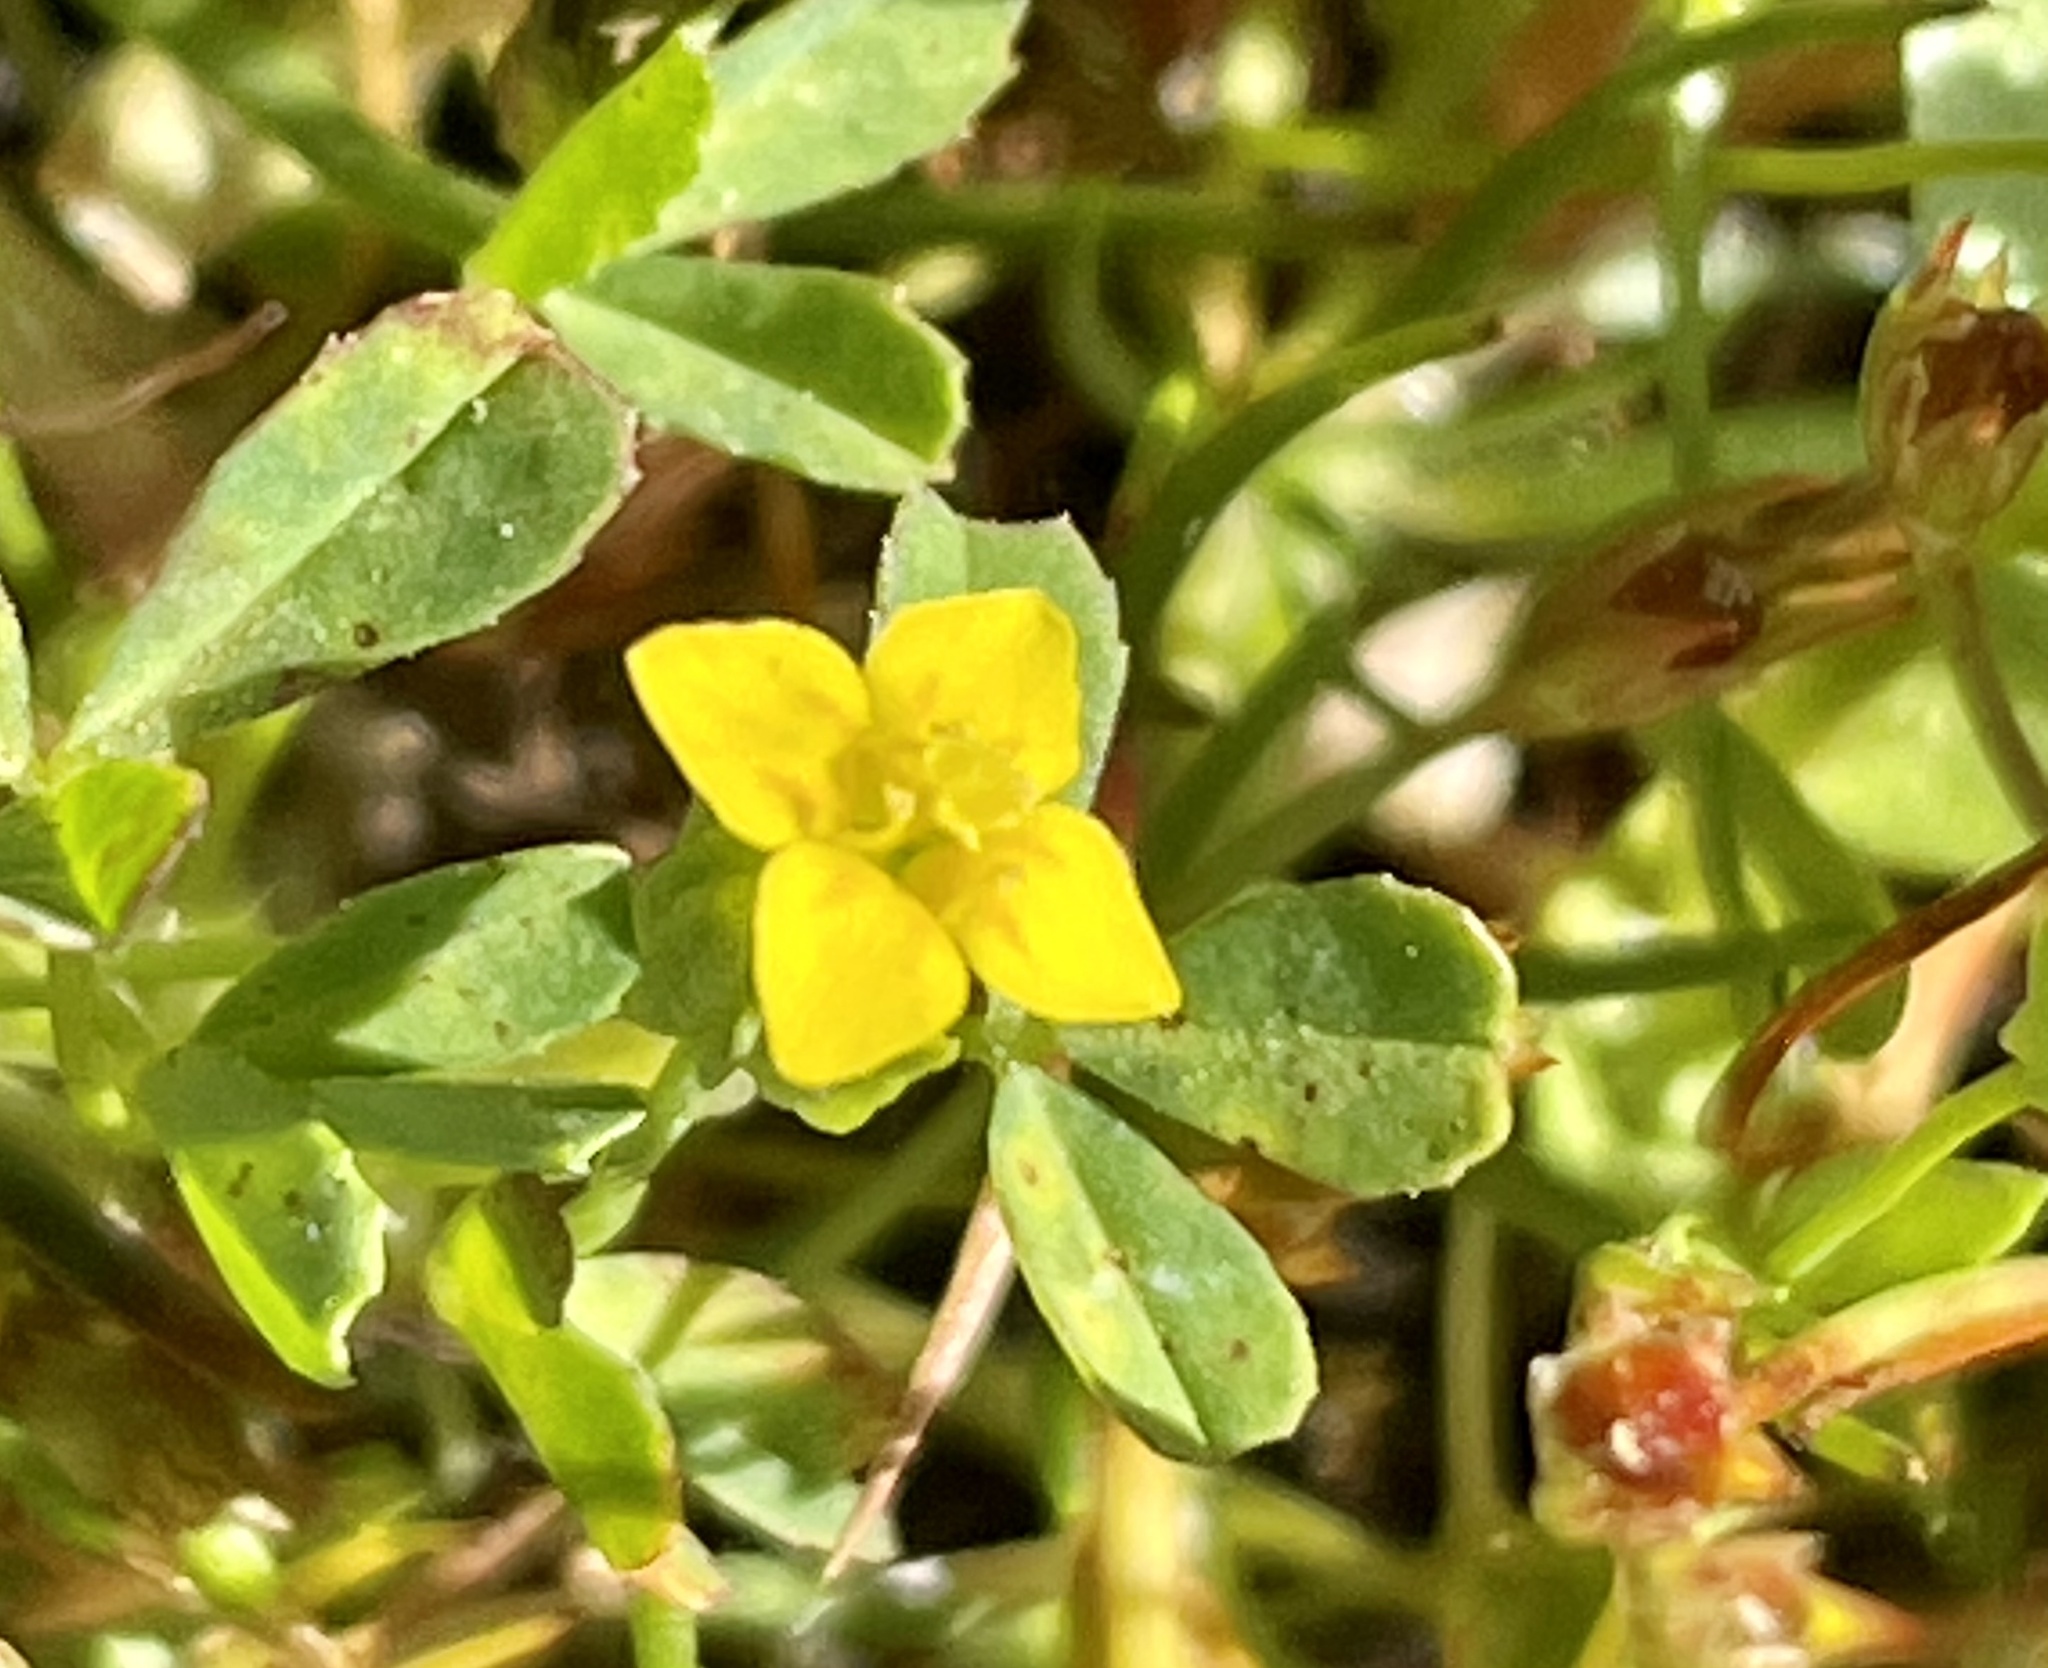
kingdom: Plantae
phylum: Tracheophyta
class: Magnoliopsida
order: Gentianales
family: Gentianaceae
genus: Microcala
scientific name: Microcala quadrangularis
